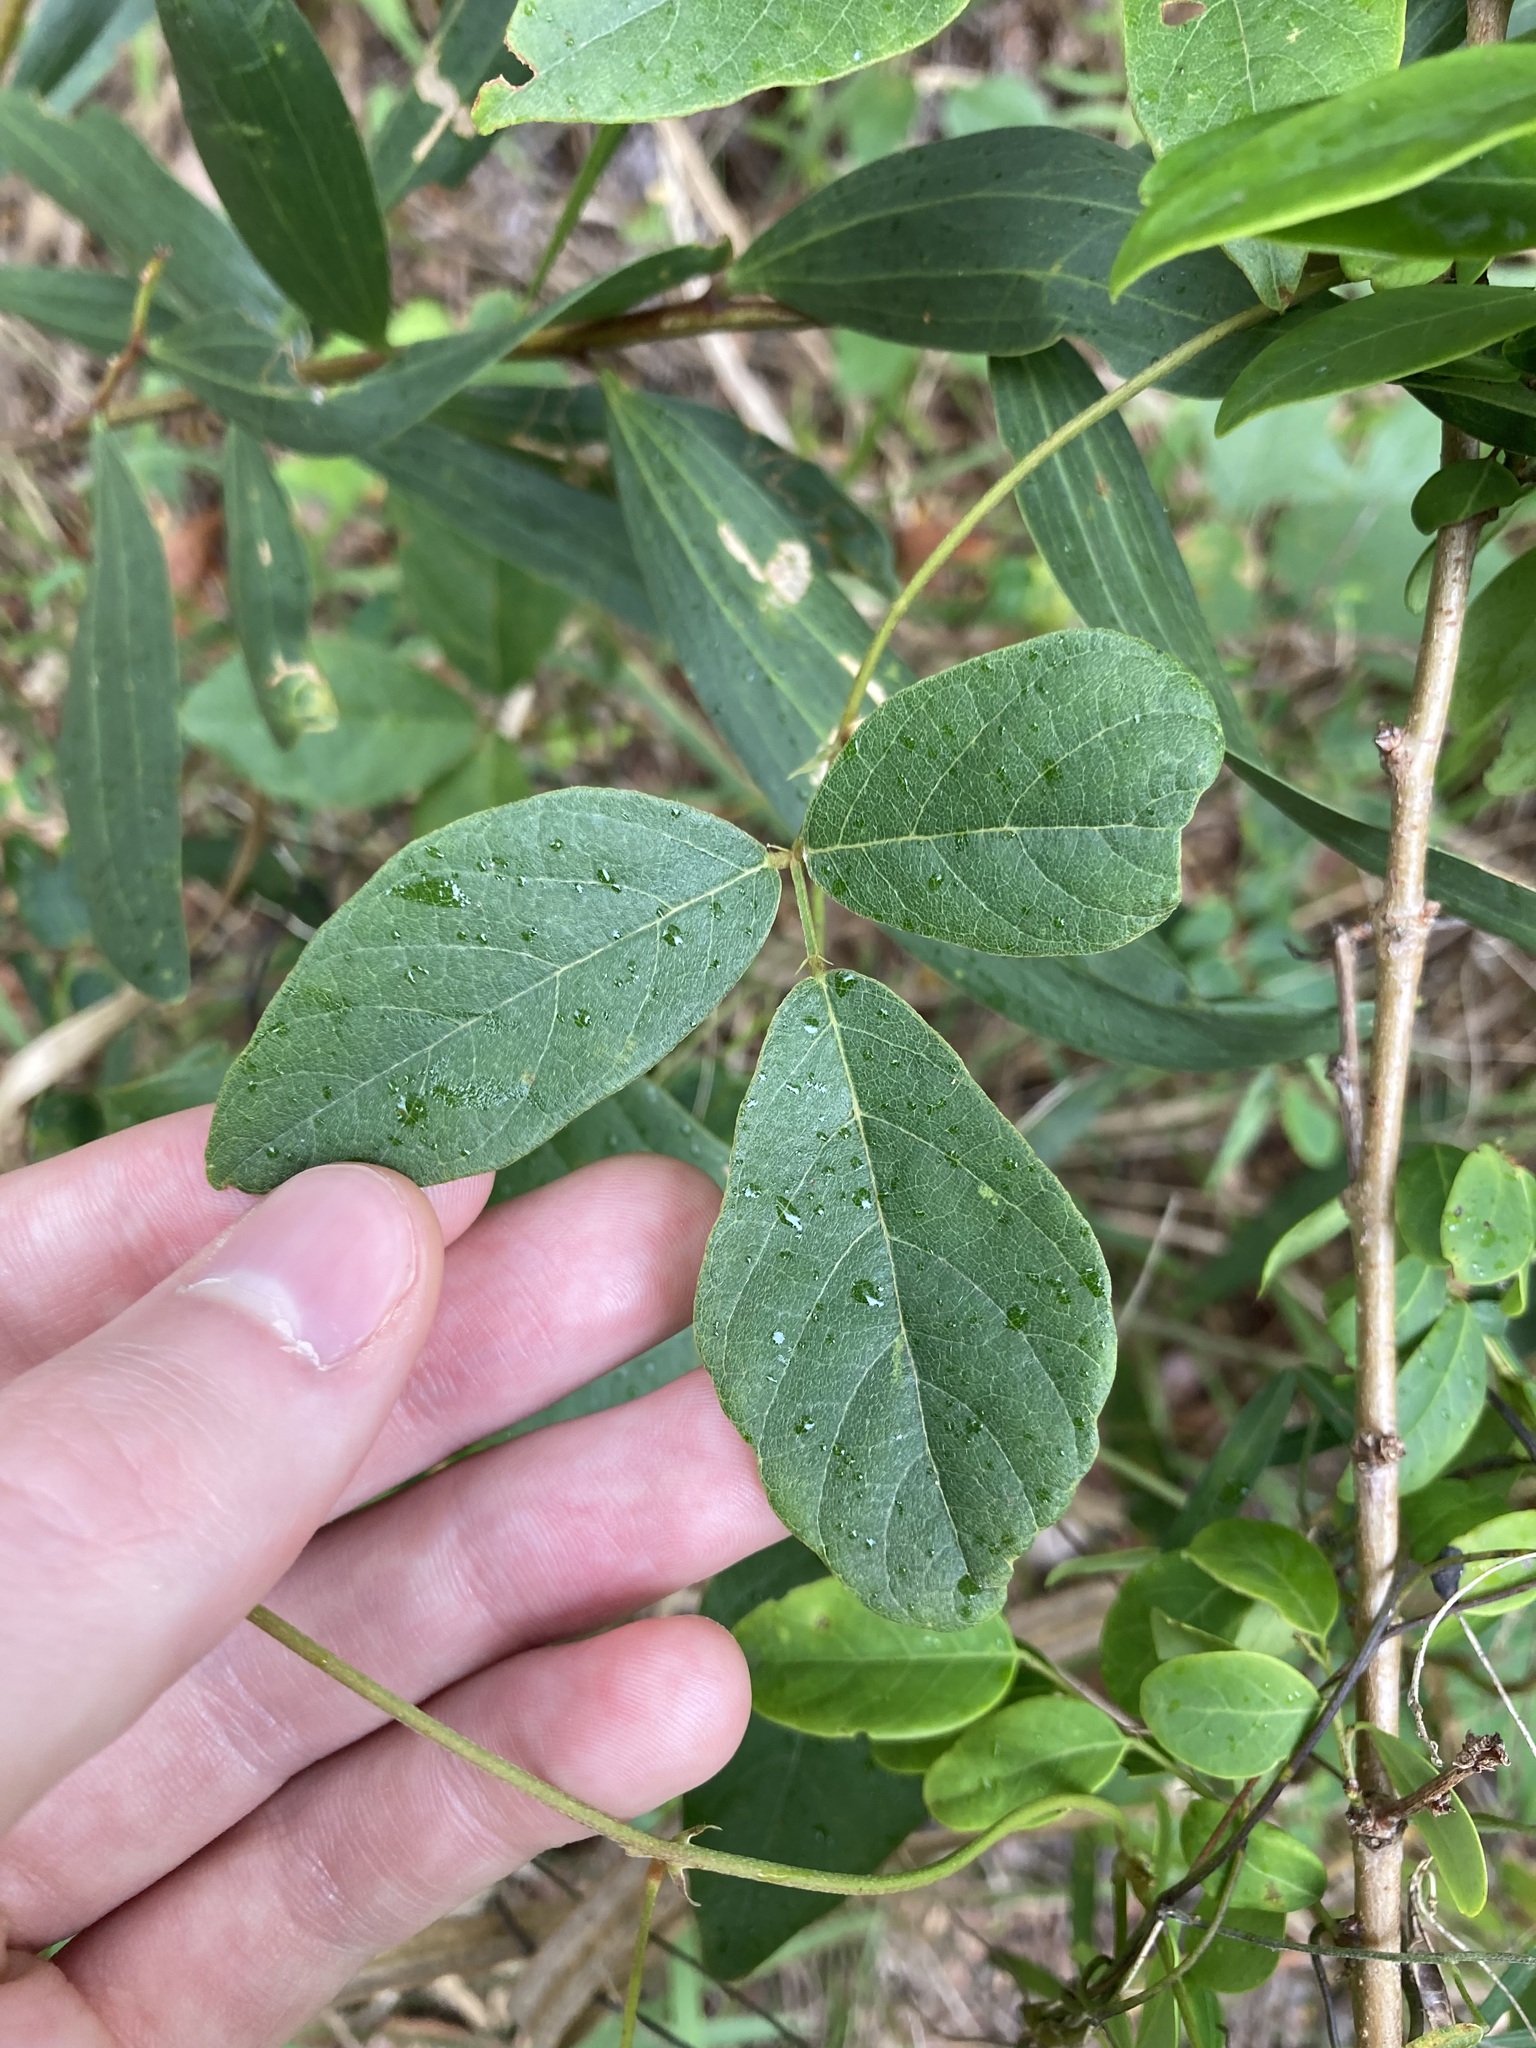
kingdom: Plantae
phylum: Tracheophyta
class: Magnoliopsida
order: Fabales
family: Fabaceae
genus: Kennedia
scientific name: Kennedia rubicunda
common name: Red kennedy-pea
